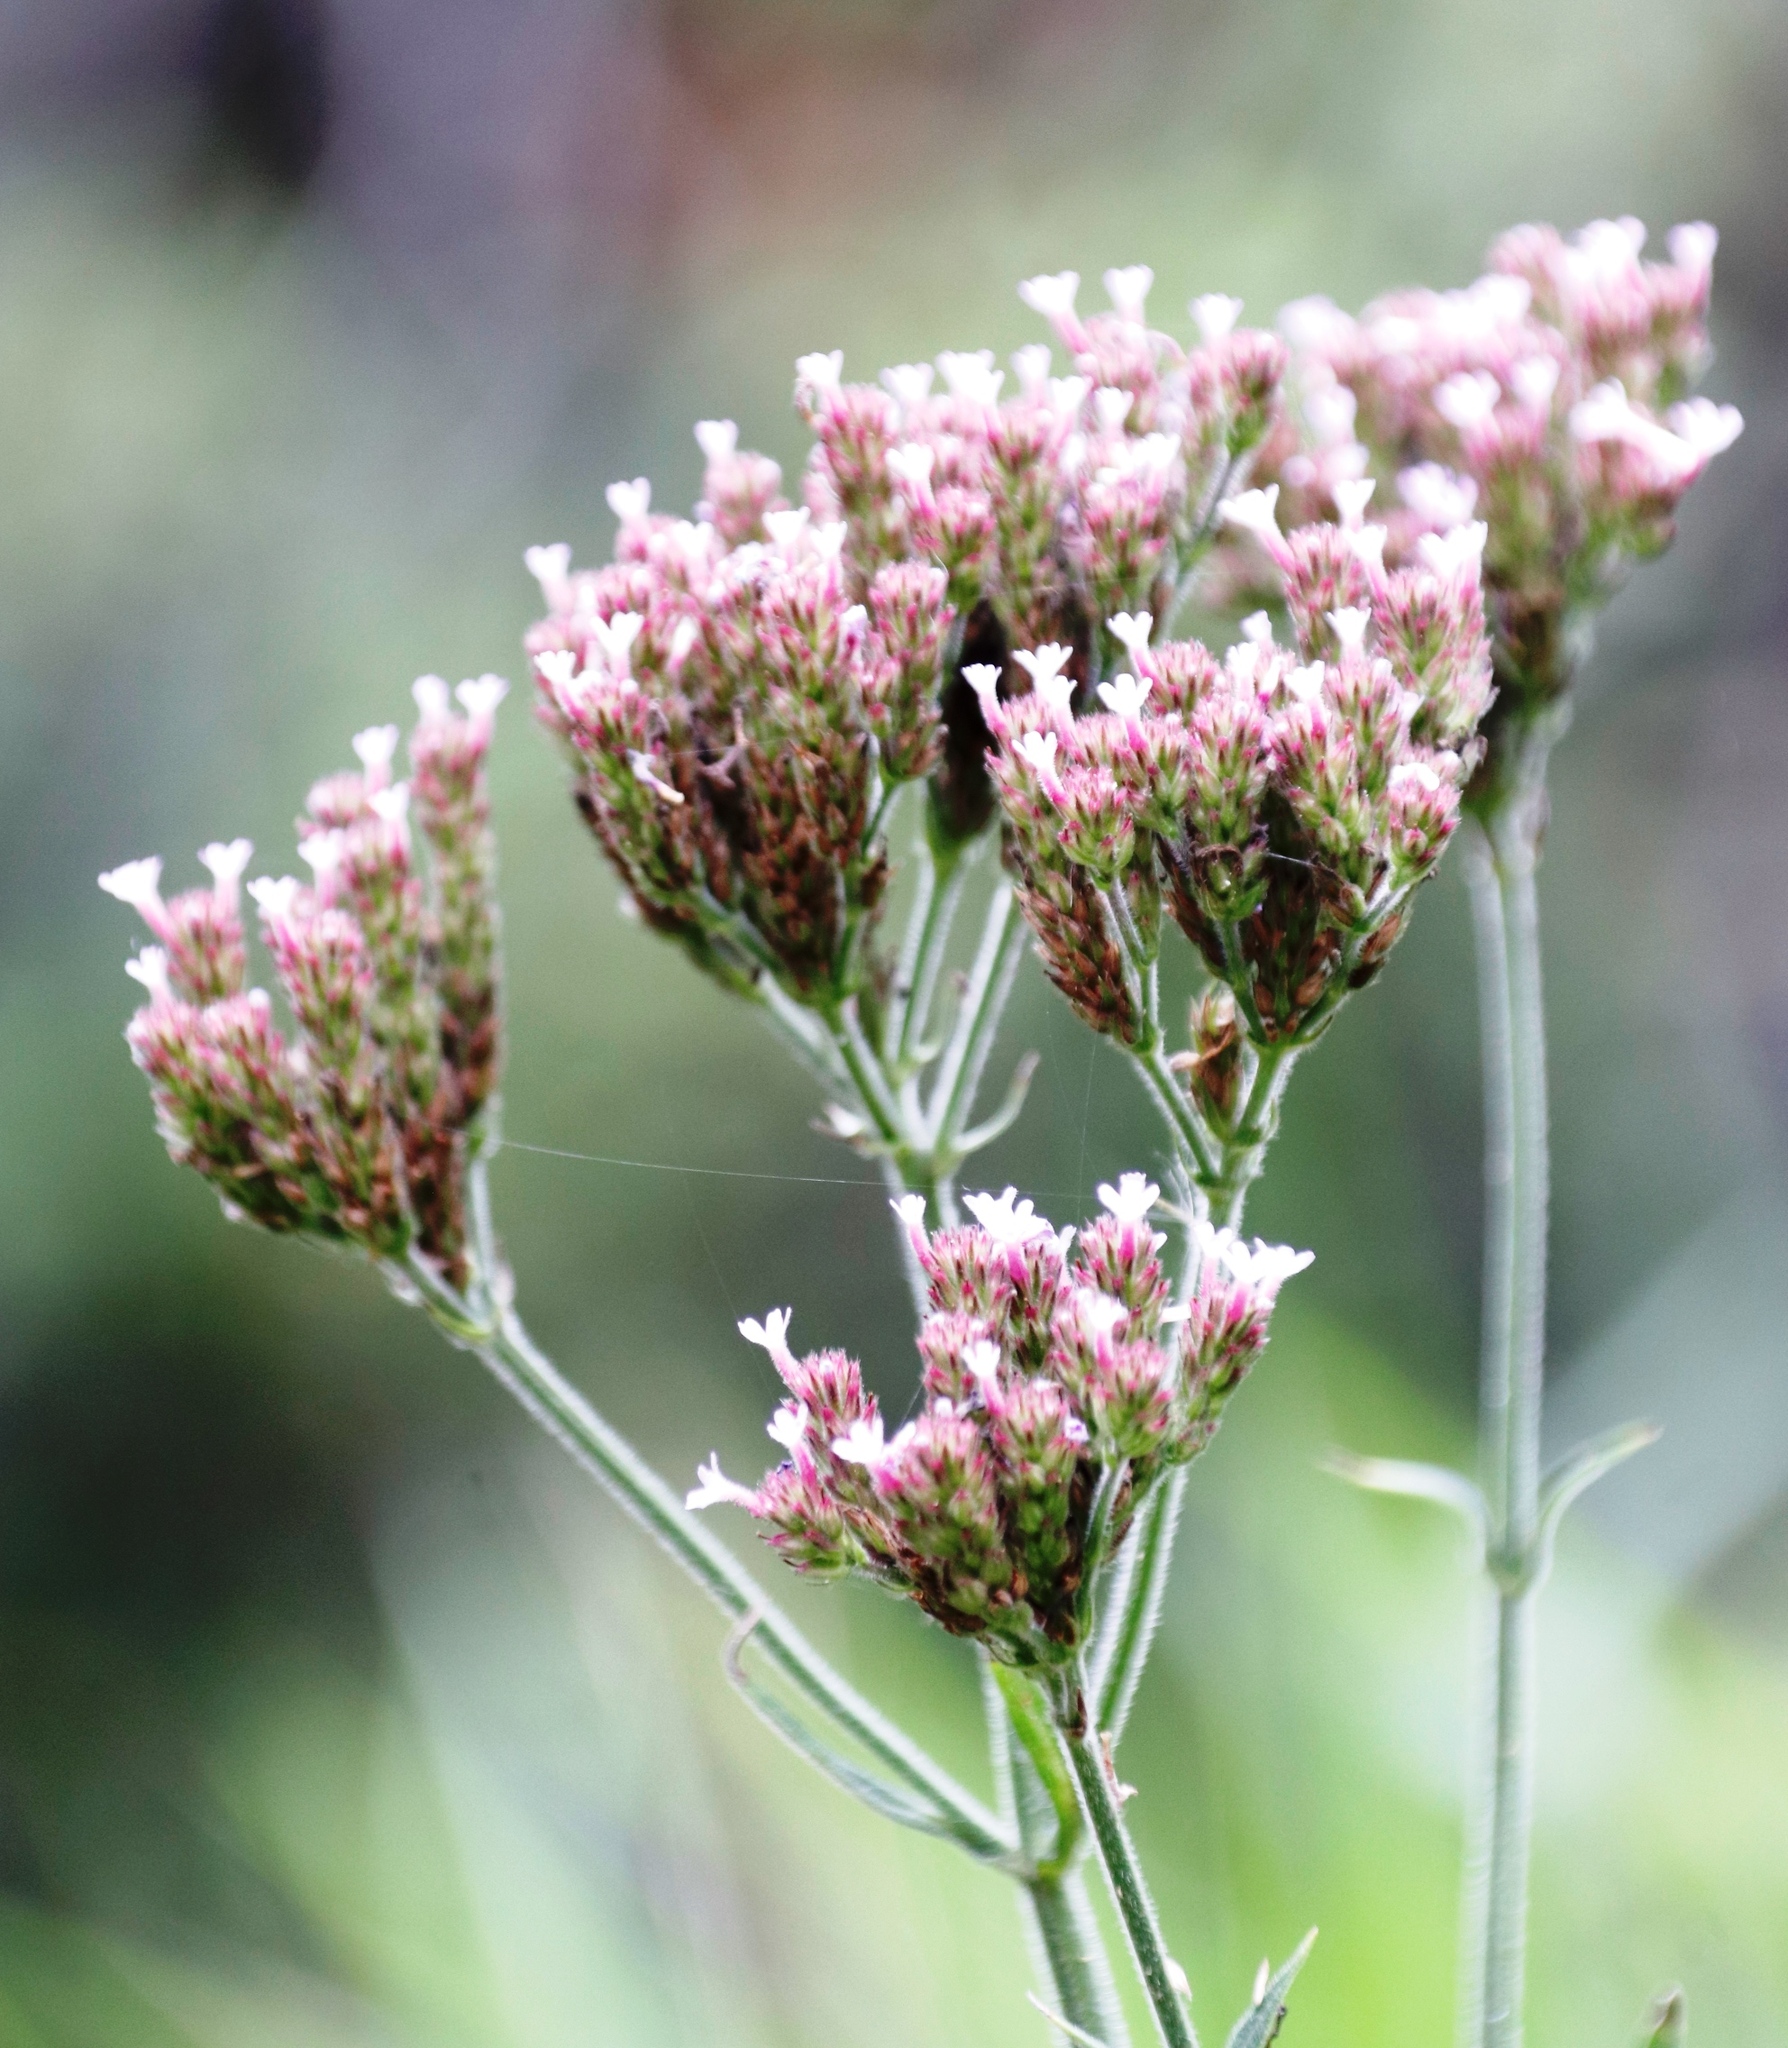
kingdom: Plantae
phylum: Tracheophyta
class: Magnoliopsida
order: Lamiales
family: Verbenaceae
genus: Verbena
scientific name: Verbena bonariensis
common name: Purpletop vervain
